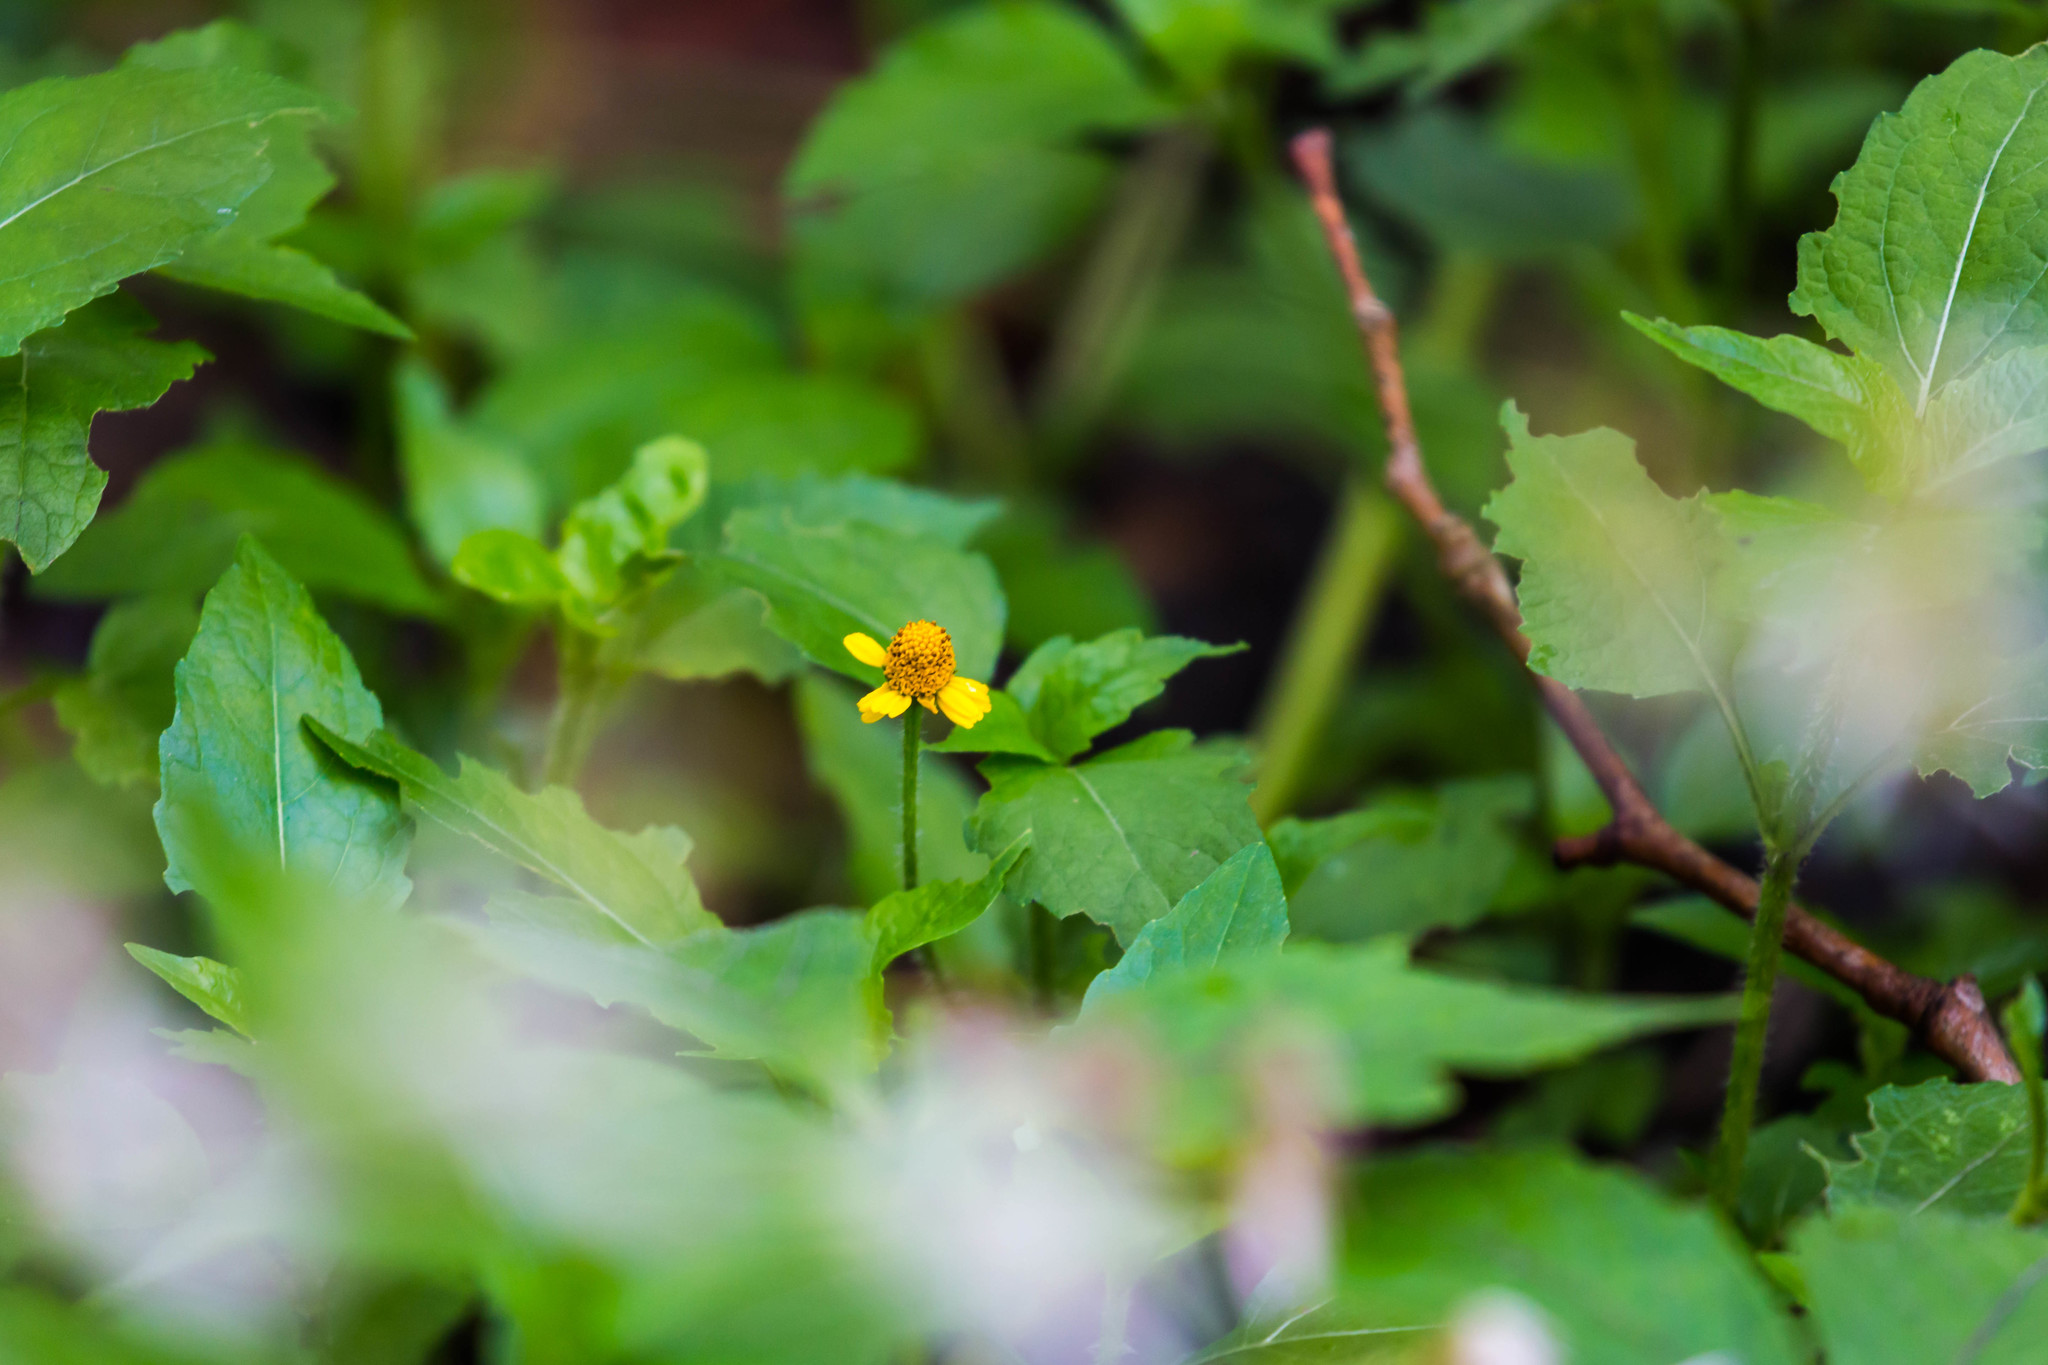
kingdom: Plantae
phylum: Tracheophyta
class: Magnoliopsida
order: Asterales
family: Asteraceae
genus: Acmella
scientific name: Acmella repens
